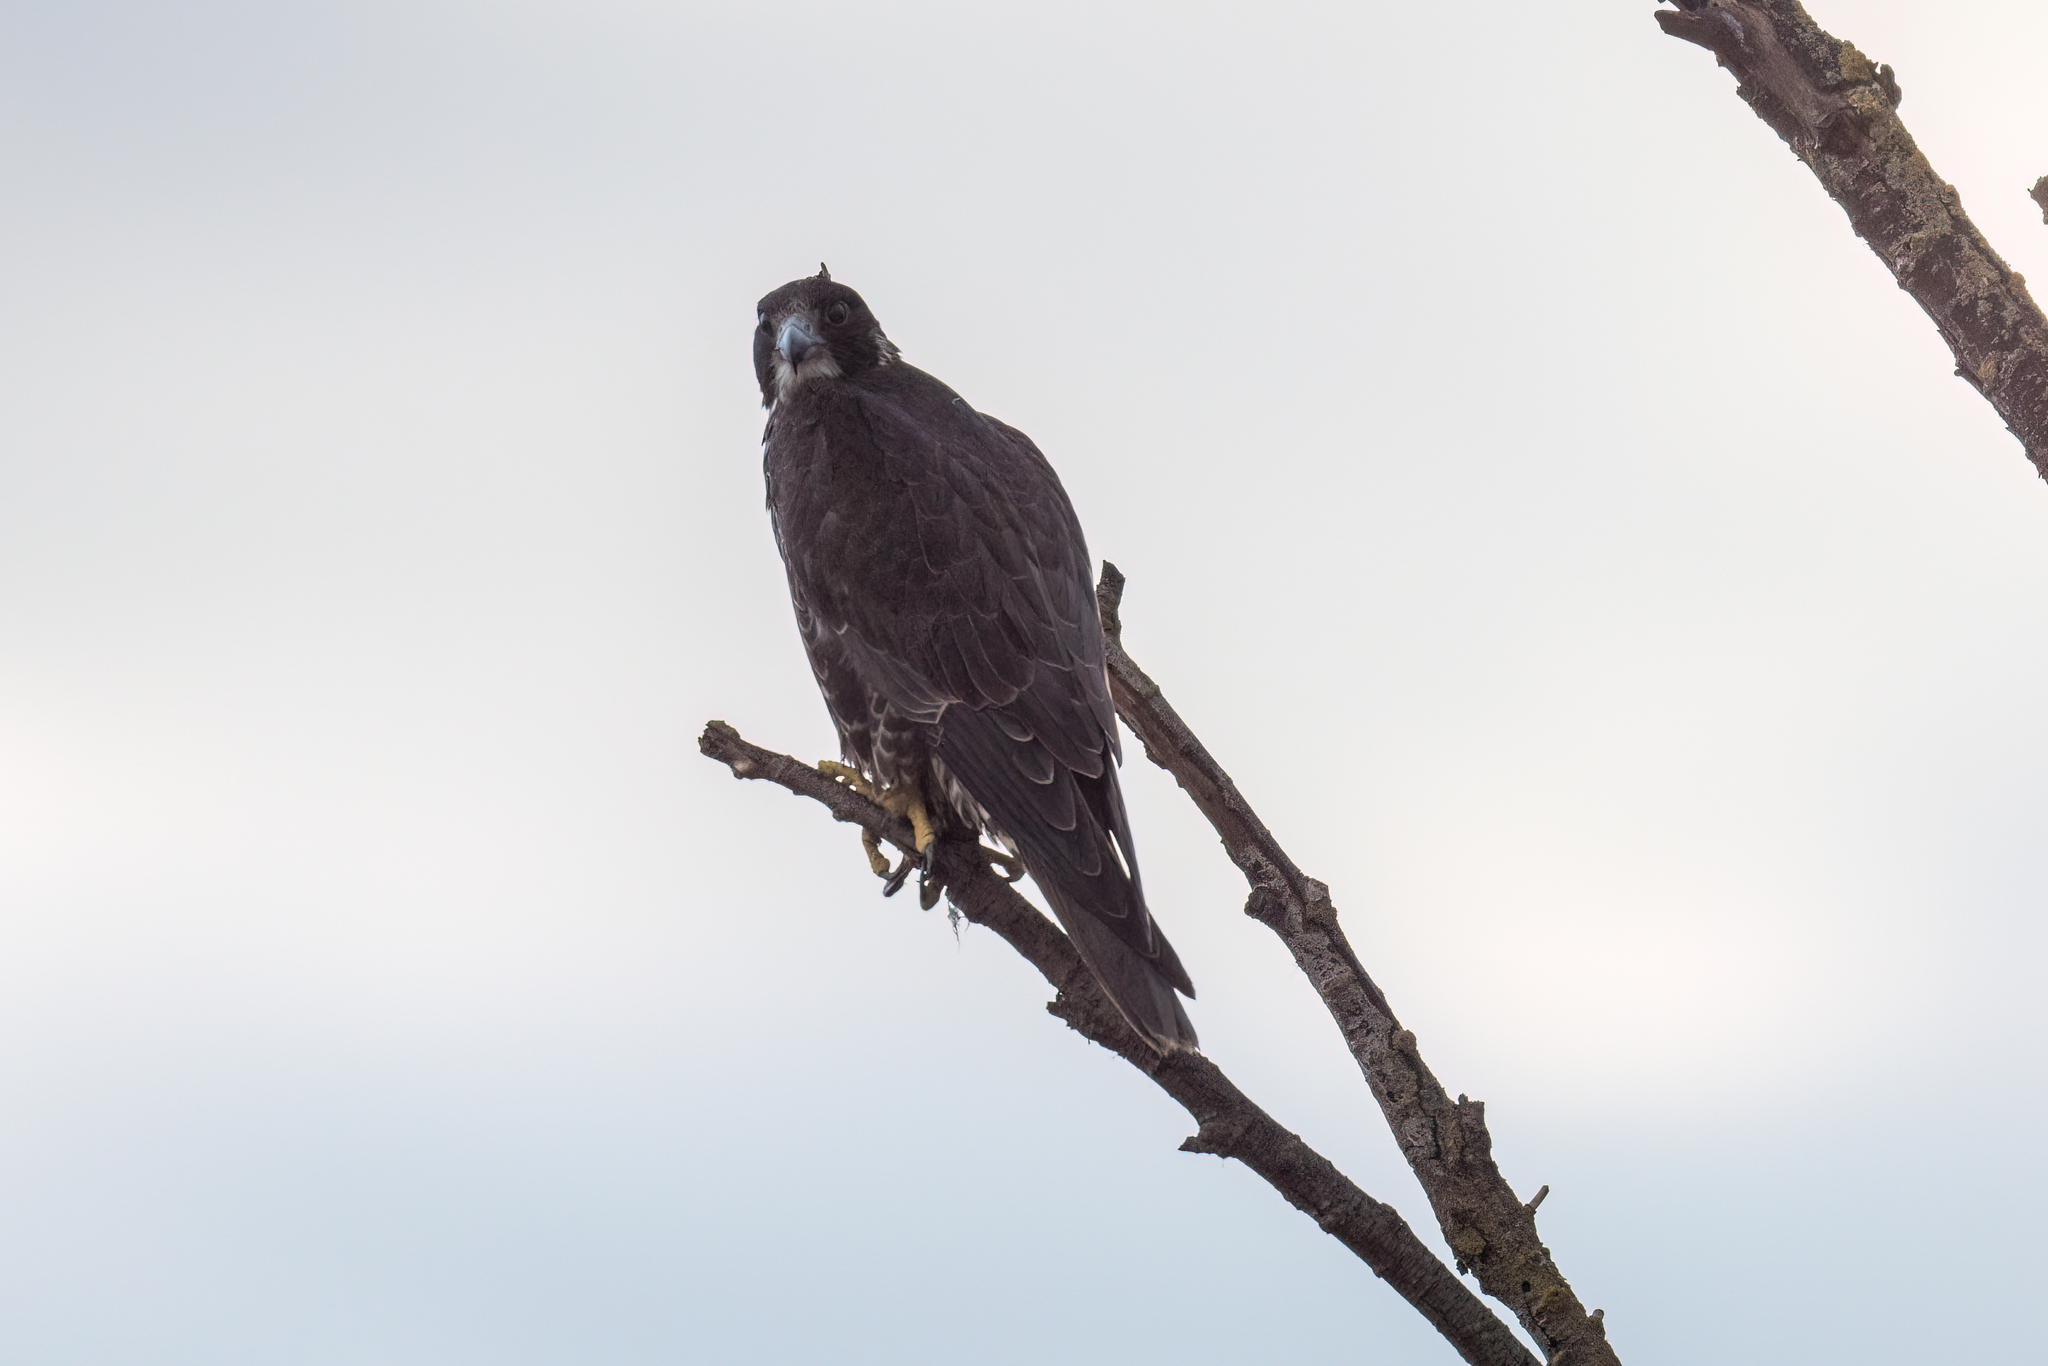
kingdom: Animalia
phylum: Chordata
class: Aves
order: Falconiformes
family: Falconidae
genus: Falco
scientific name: Falco peregrinus
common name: Peregrine falcon
